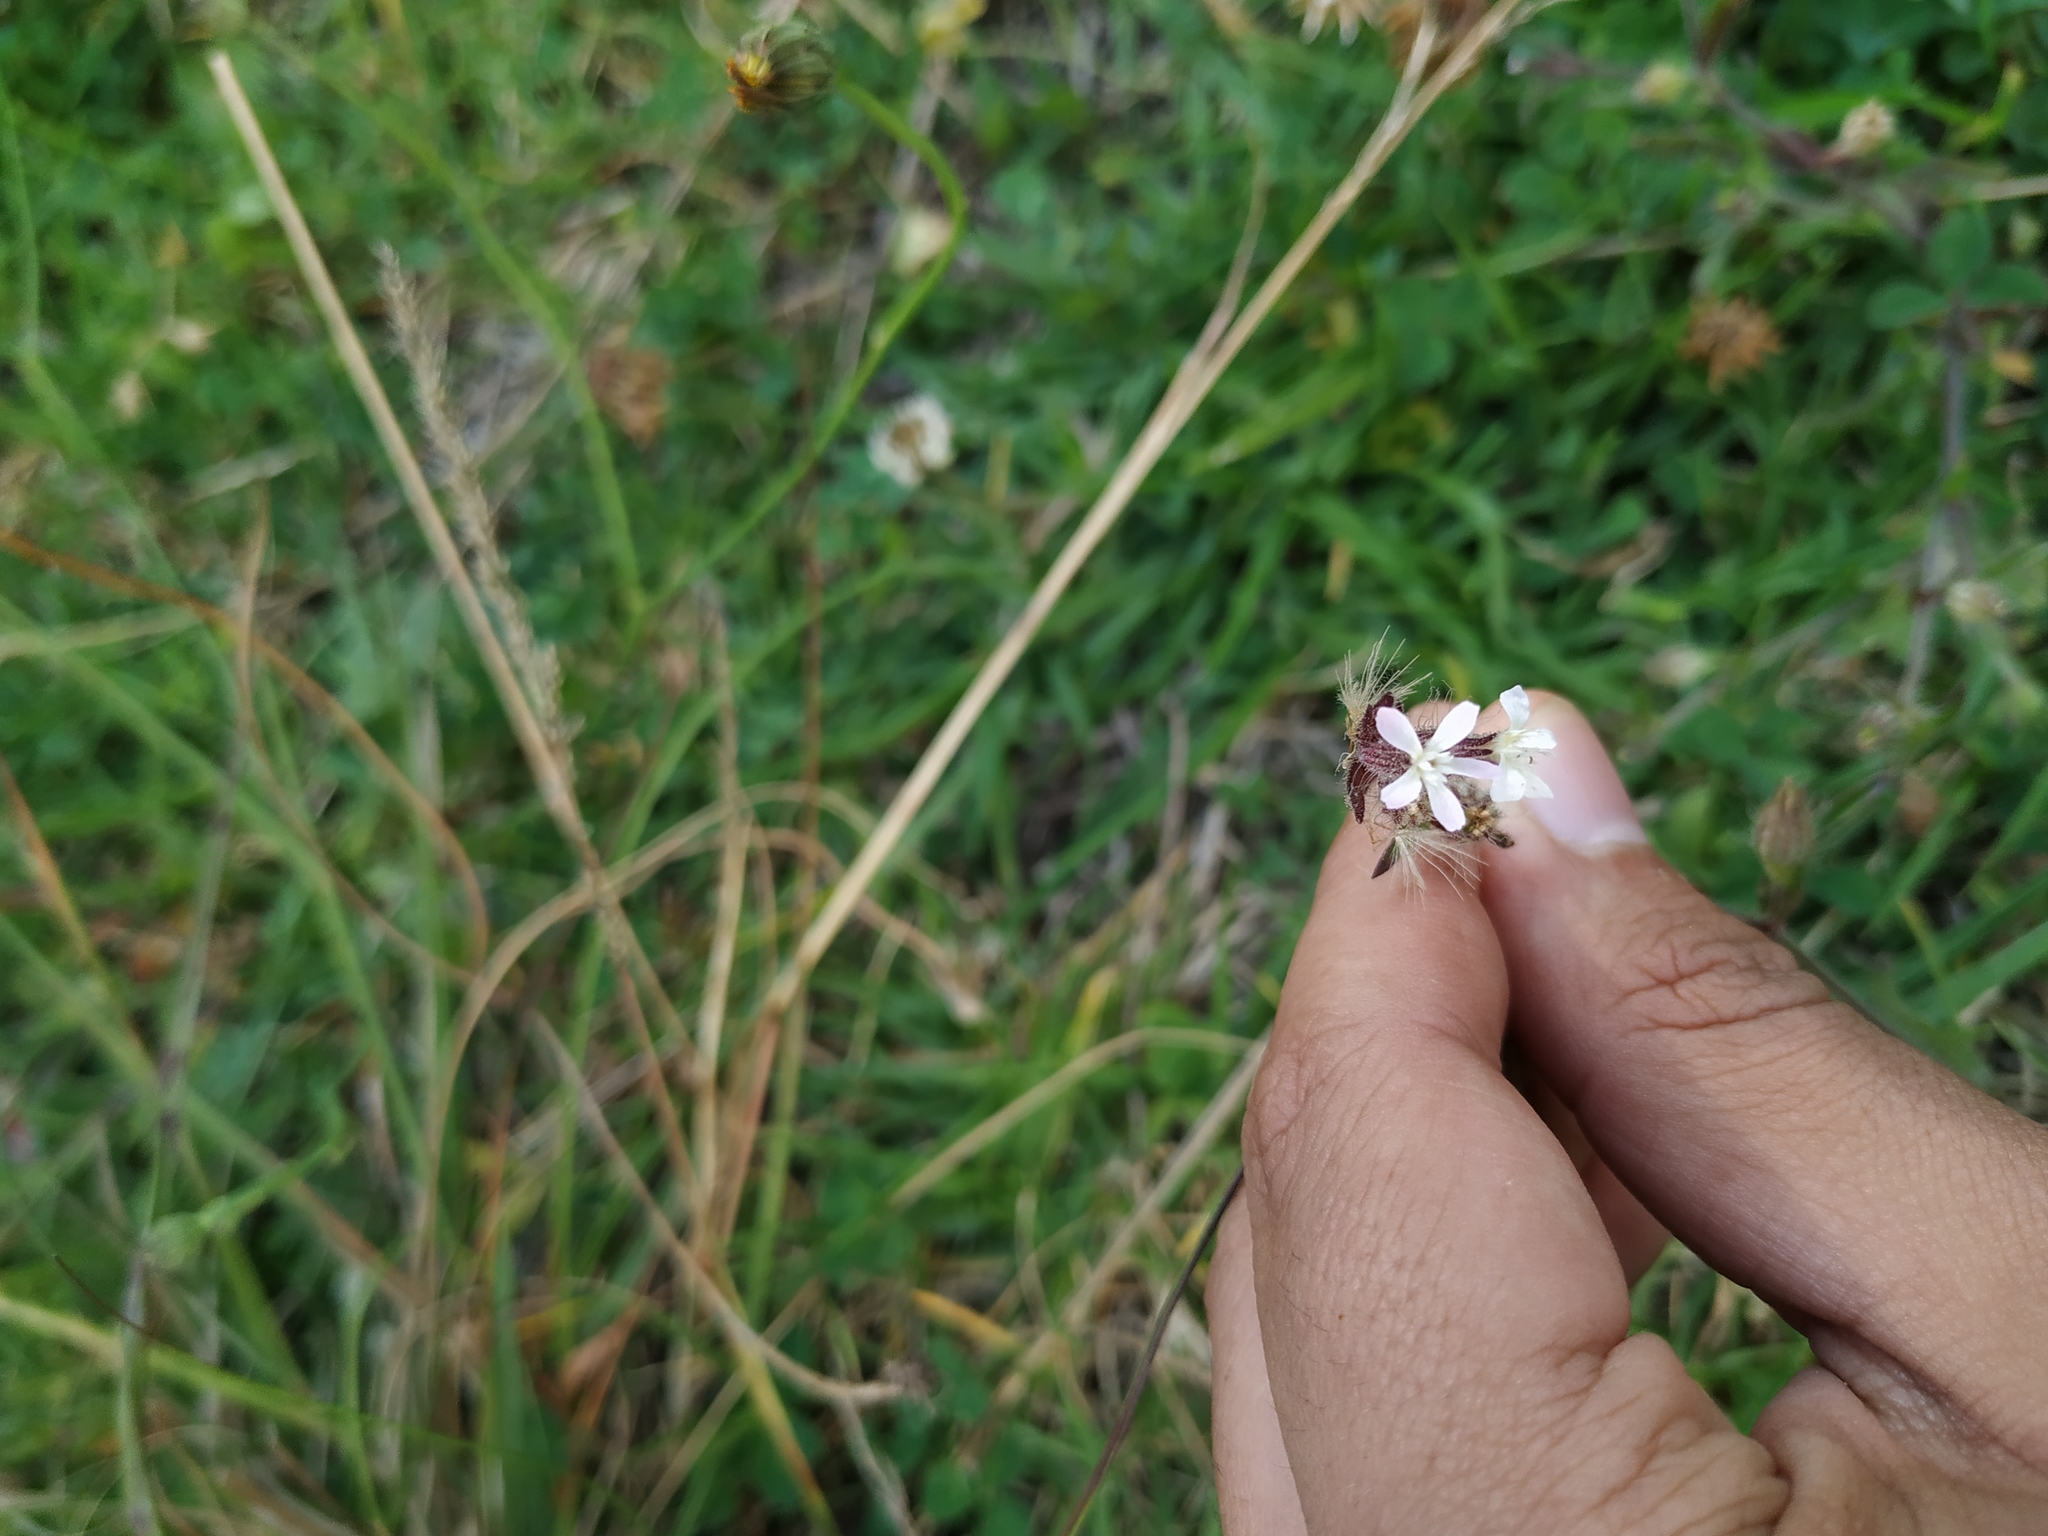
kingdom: Plantae
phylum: Tracheophyta
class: Magnoliopsida
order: Caryophyllales
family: Caryophyllaceae
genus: Silene
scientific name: Silene gallica
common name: Small-flowered catchfly
